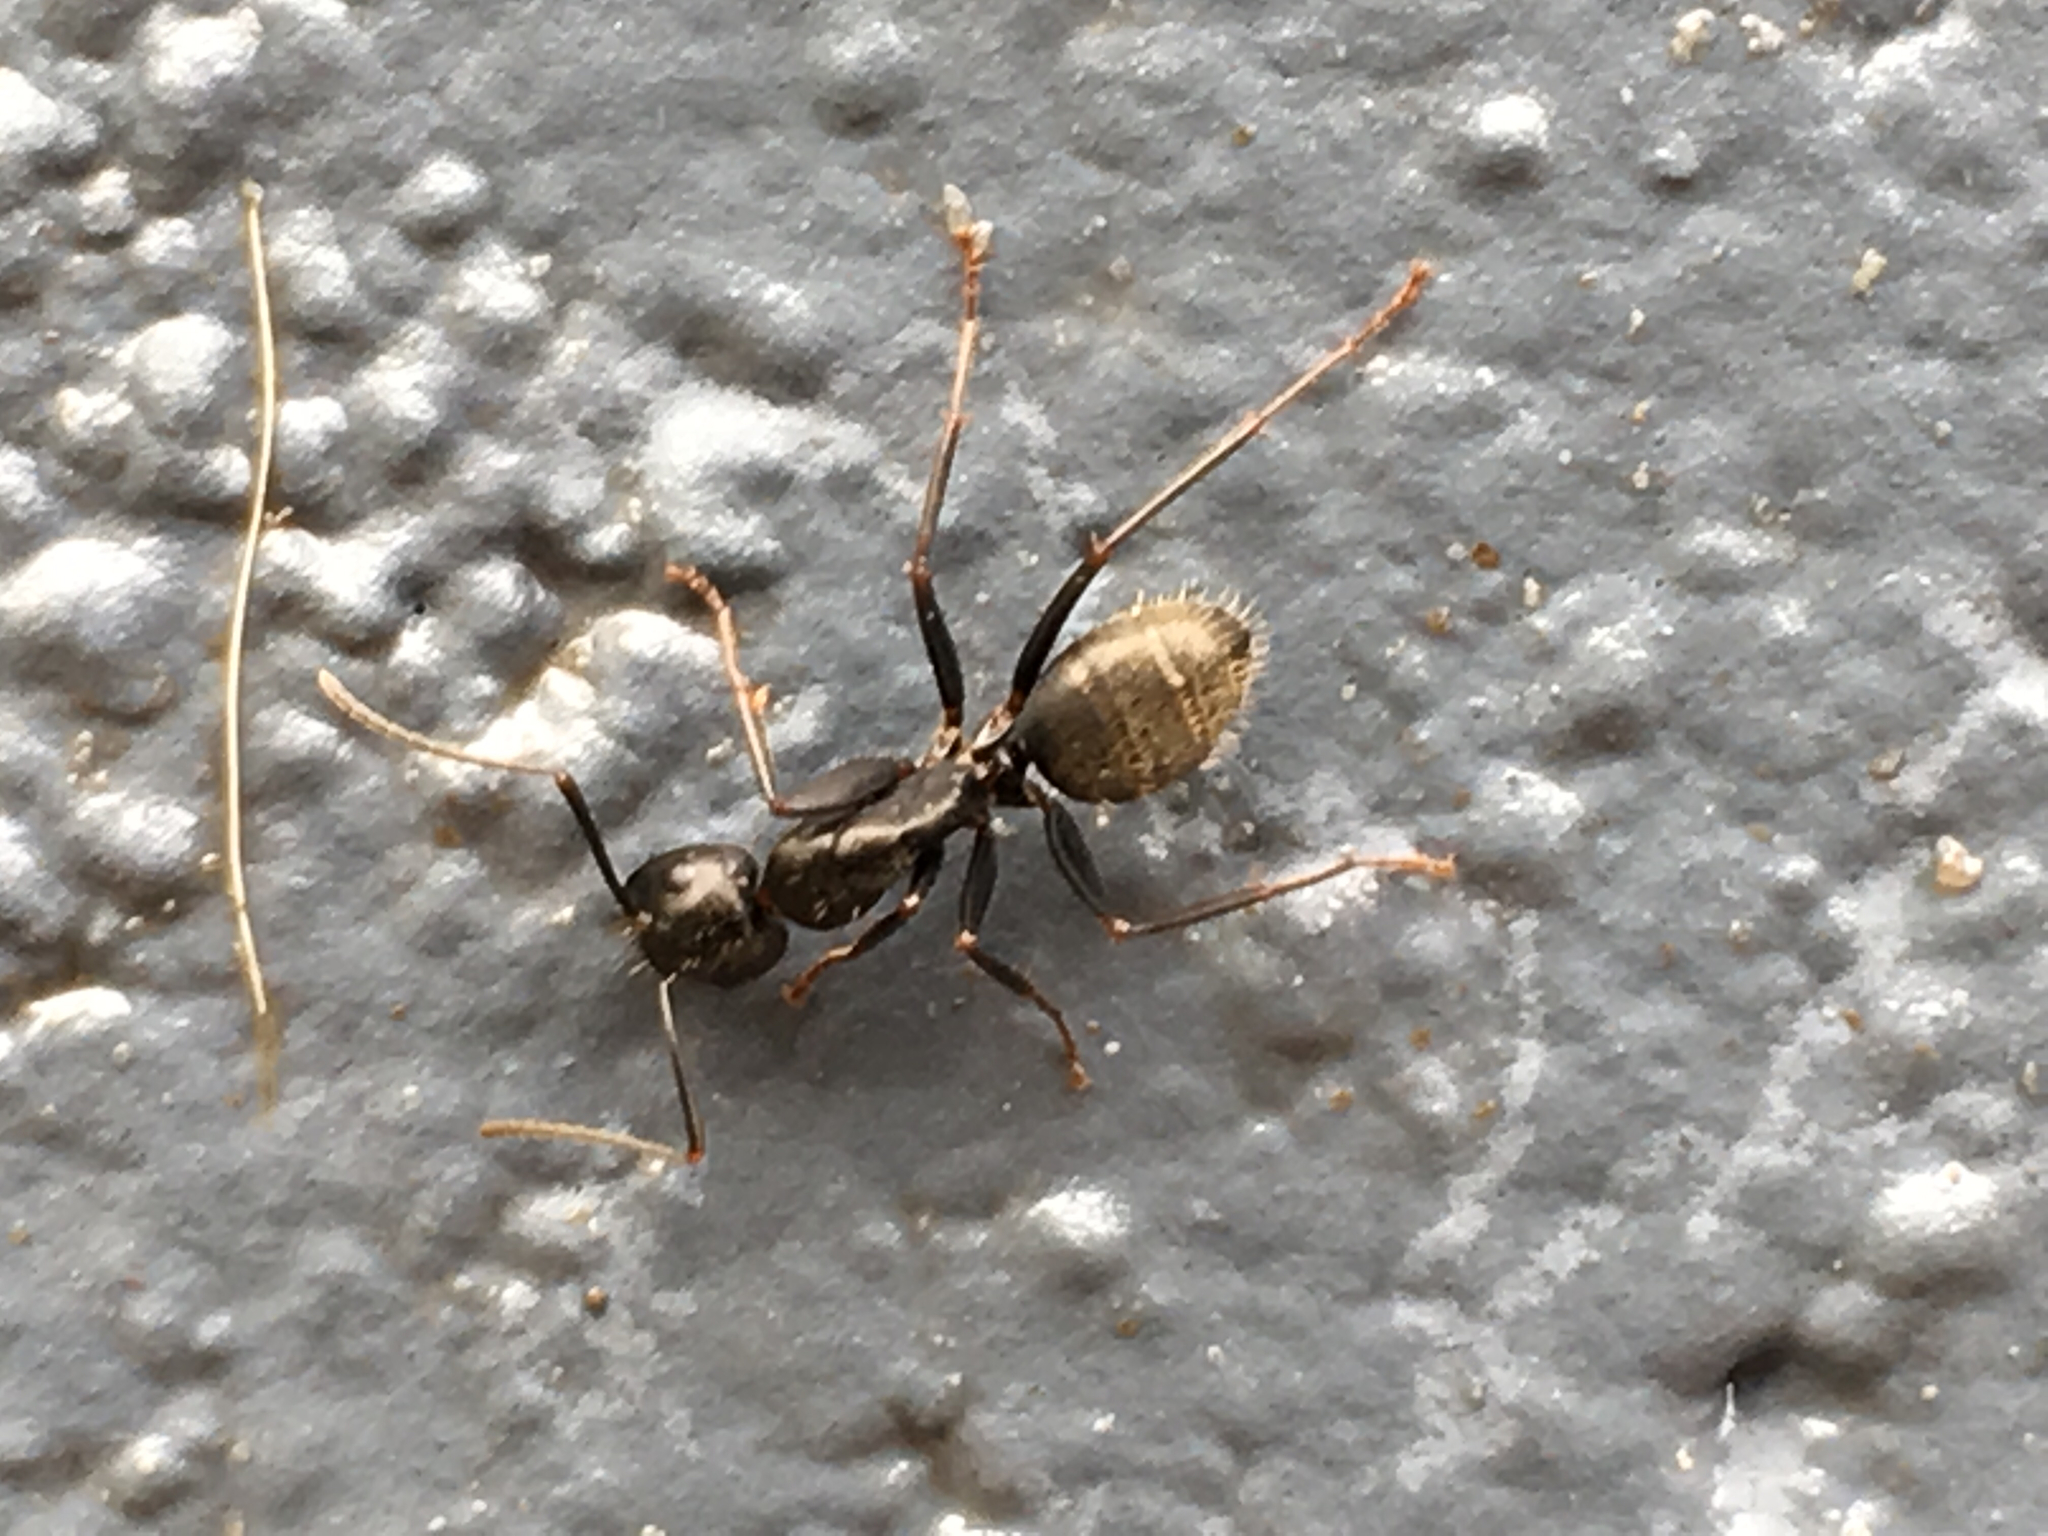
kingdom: Animalia
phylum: Arthropoda
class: Insecta
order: Hymenoptera
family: Formicidae
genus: Camponotus
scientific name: Camponotus pennsylvanicus
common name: Black carpenter ant
